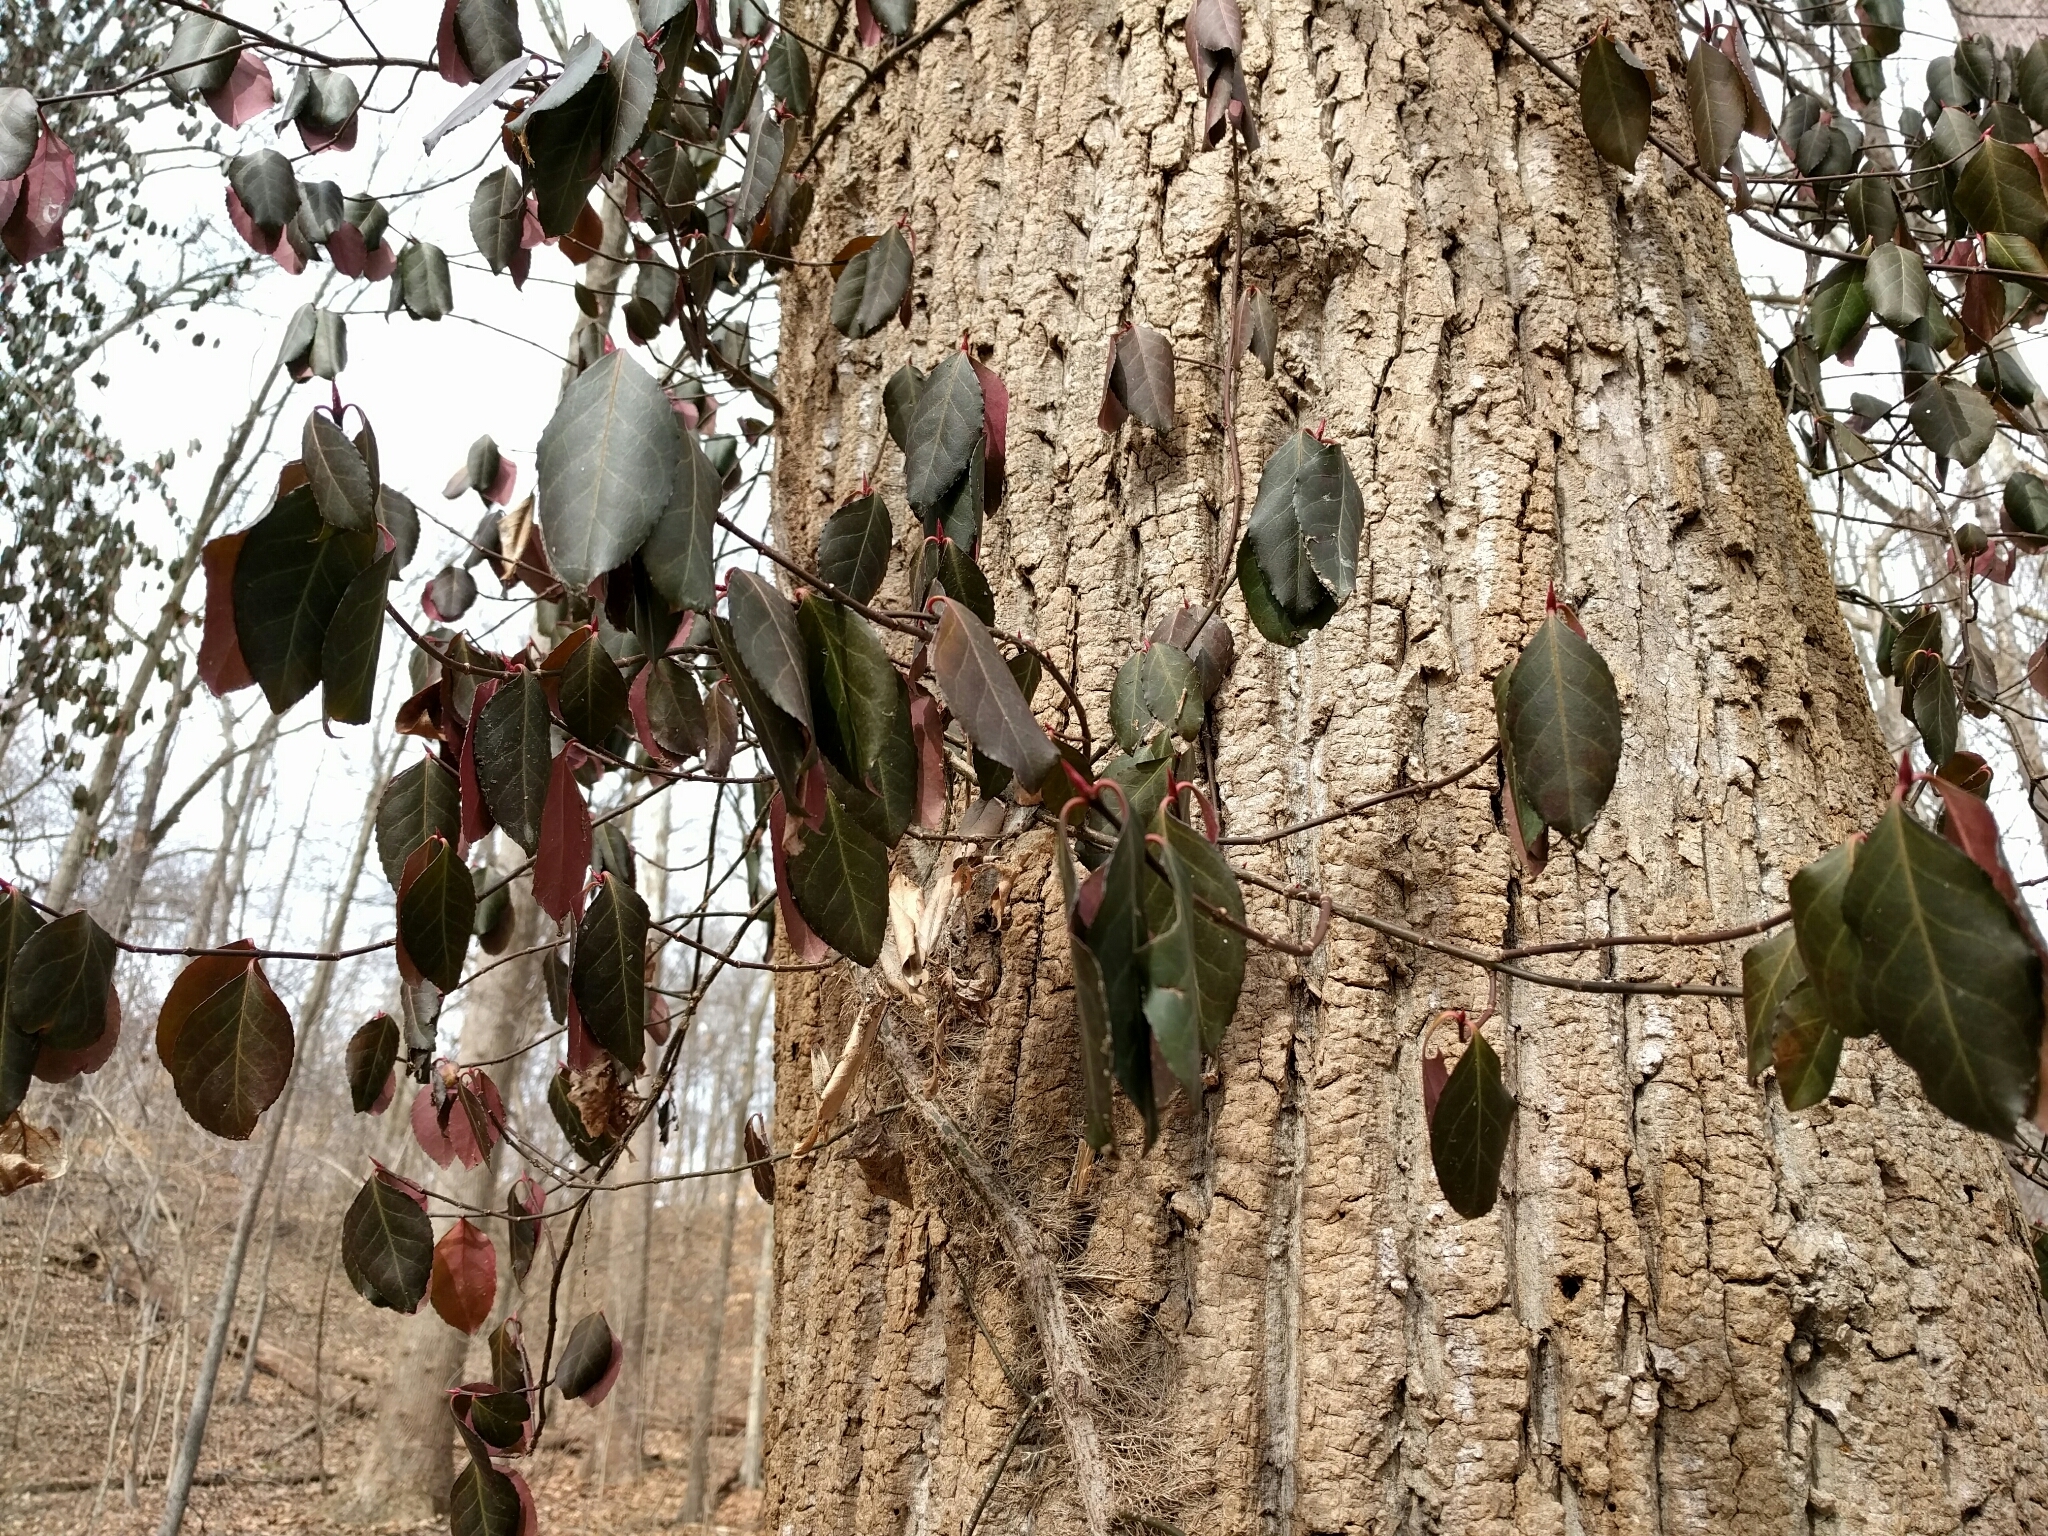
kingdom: Plantae
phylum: Tracheophyta
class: Magnoliopsida
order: Celastrales
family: Celastraceae
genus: Euonymus
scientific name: Euonymus fortunei
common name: Climbing euonymus
